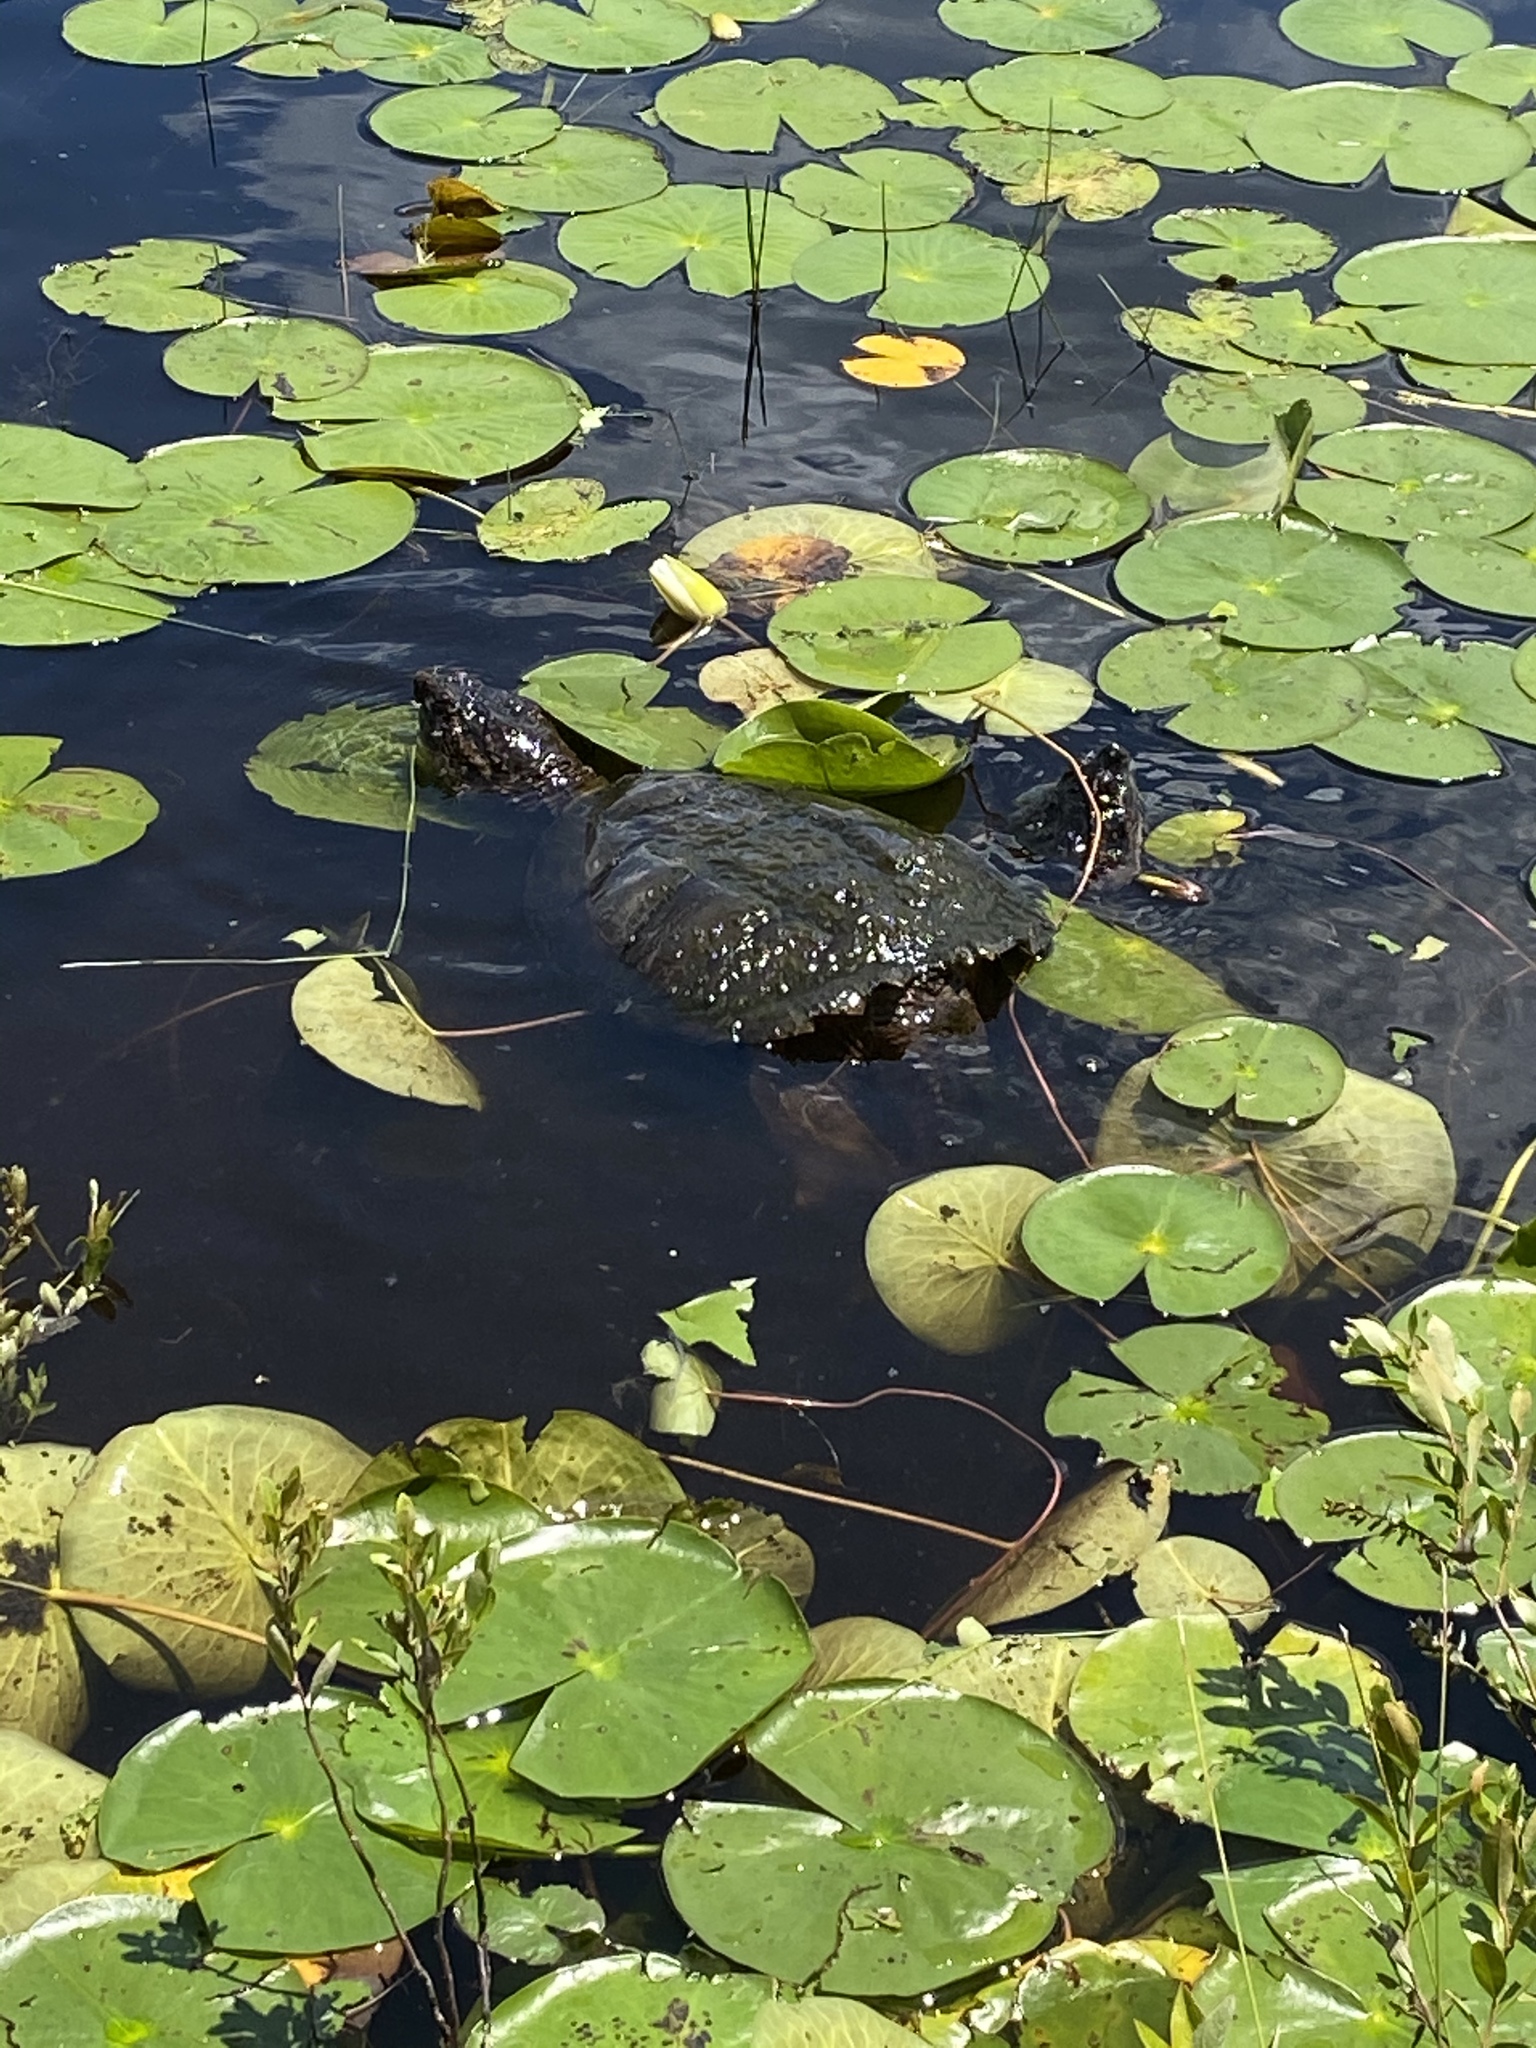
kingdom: Animalia
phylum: Chordata
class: Testudines
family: Chelydridae
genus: Chelydra
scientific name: Chelydra serpentina
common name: Common snapping turtle
